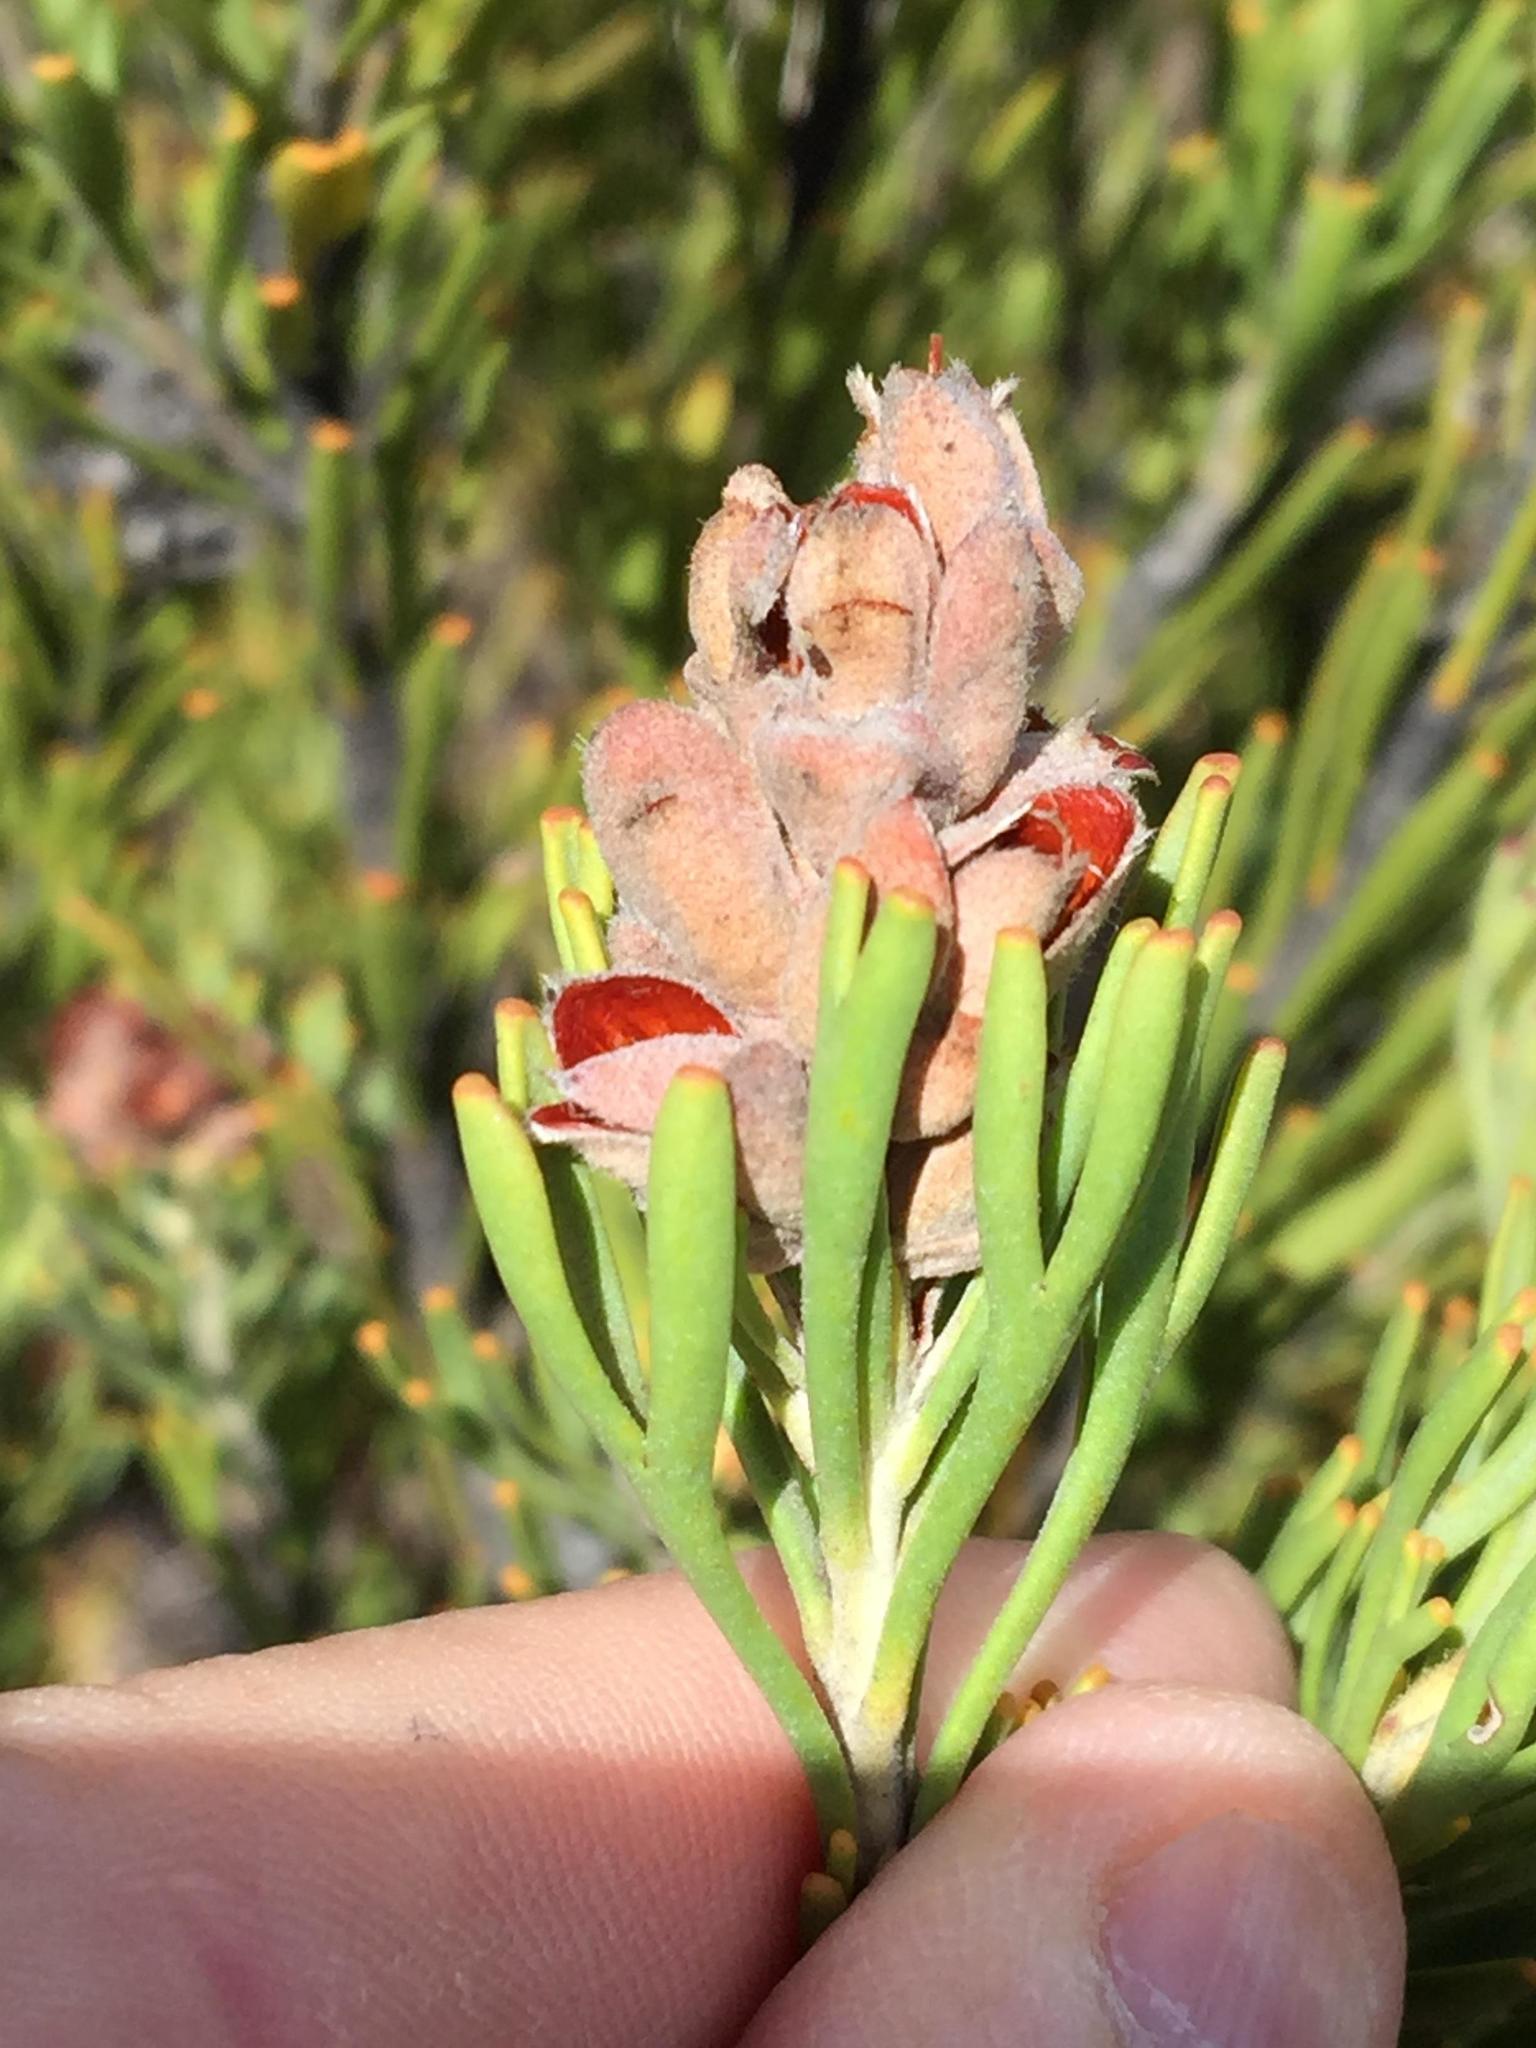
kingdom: Plantae
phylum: Tracheophyta
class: Magnoliopsida
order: Proteales
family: Proteaceae
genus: Paranomus
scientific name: Paranomus dregei
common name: Scented sceptre
